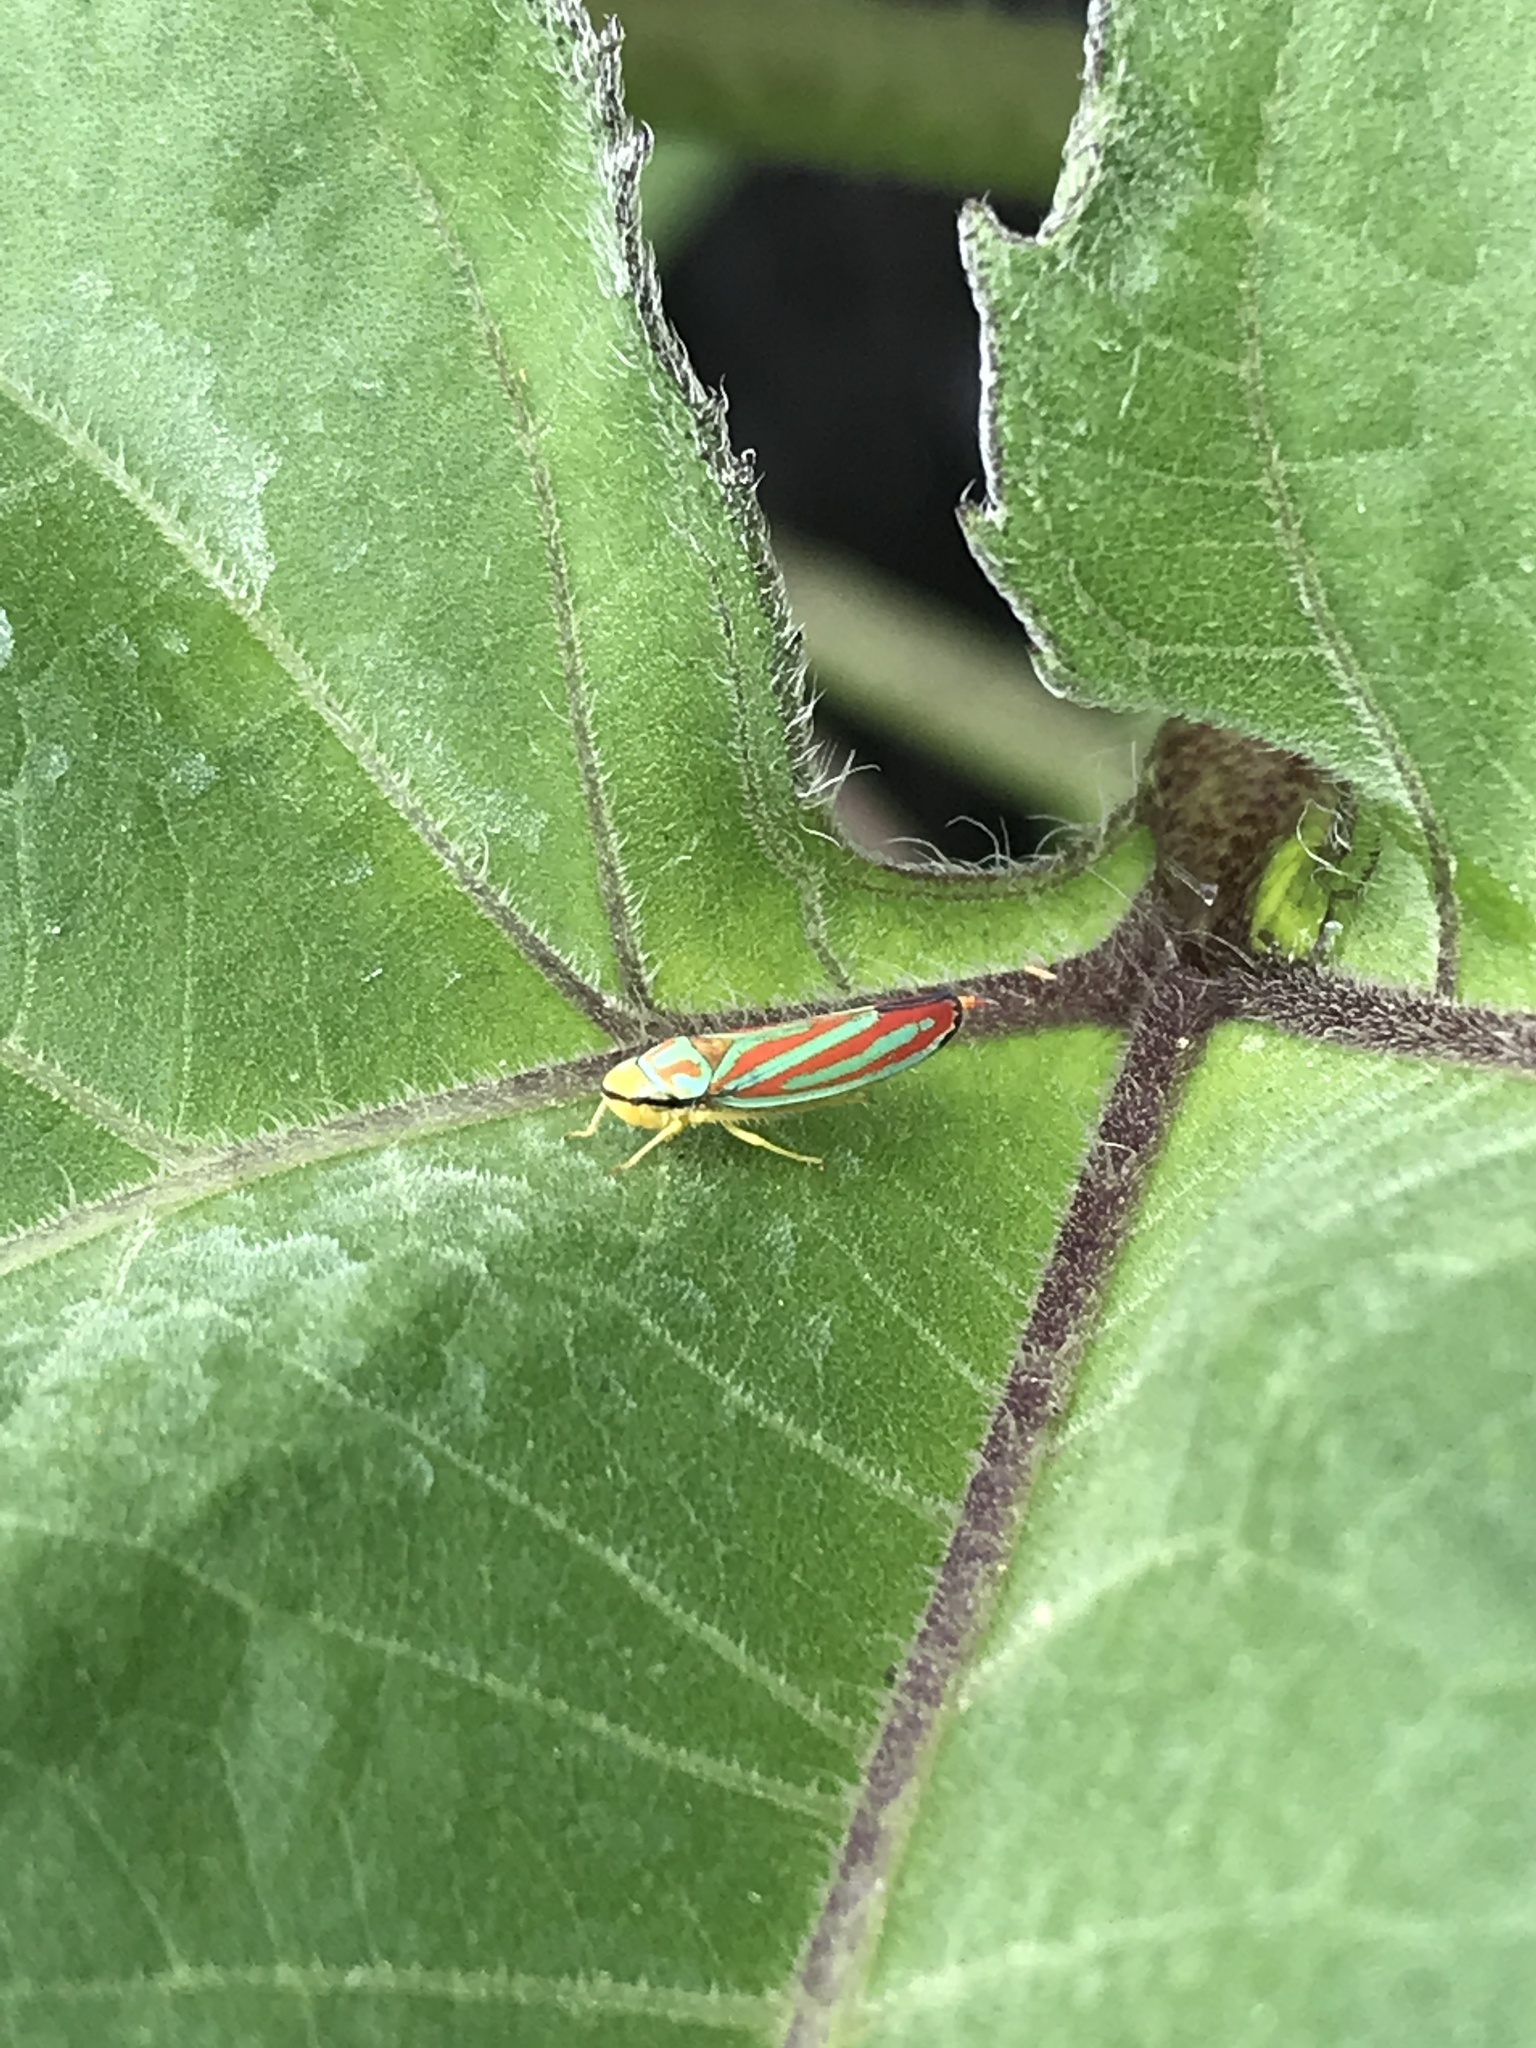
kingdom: Animalia
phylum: Arthropoda
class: Insecta
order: Hemiptera
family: Cicadellidae
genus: Graphocephala
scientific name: Graphocephala coccinea
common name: Candy-striped leafhopper
